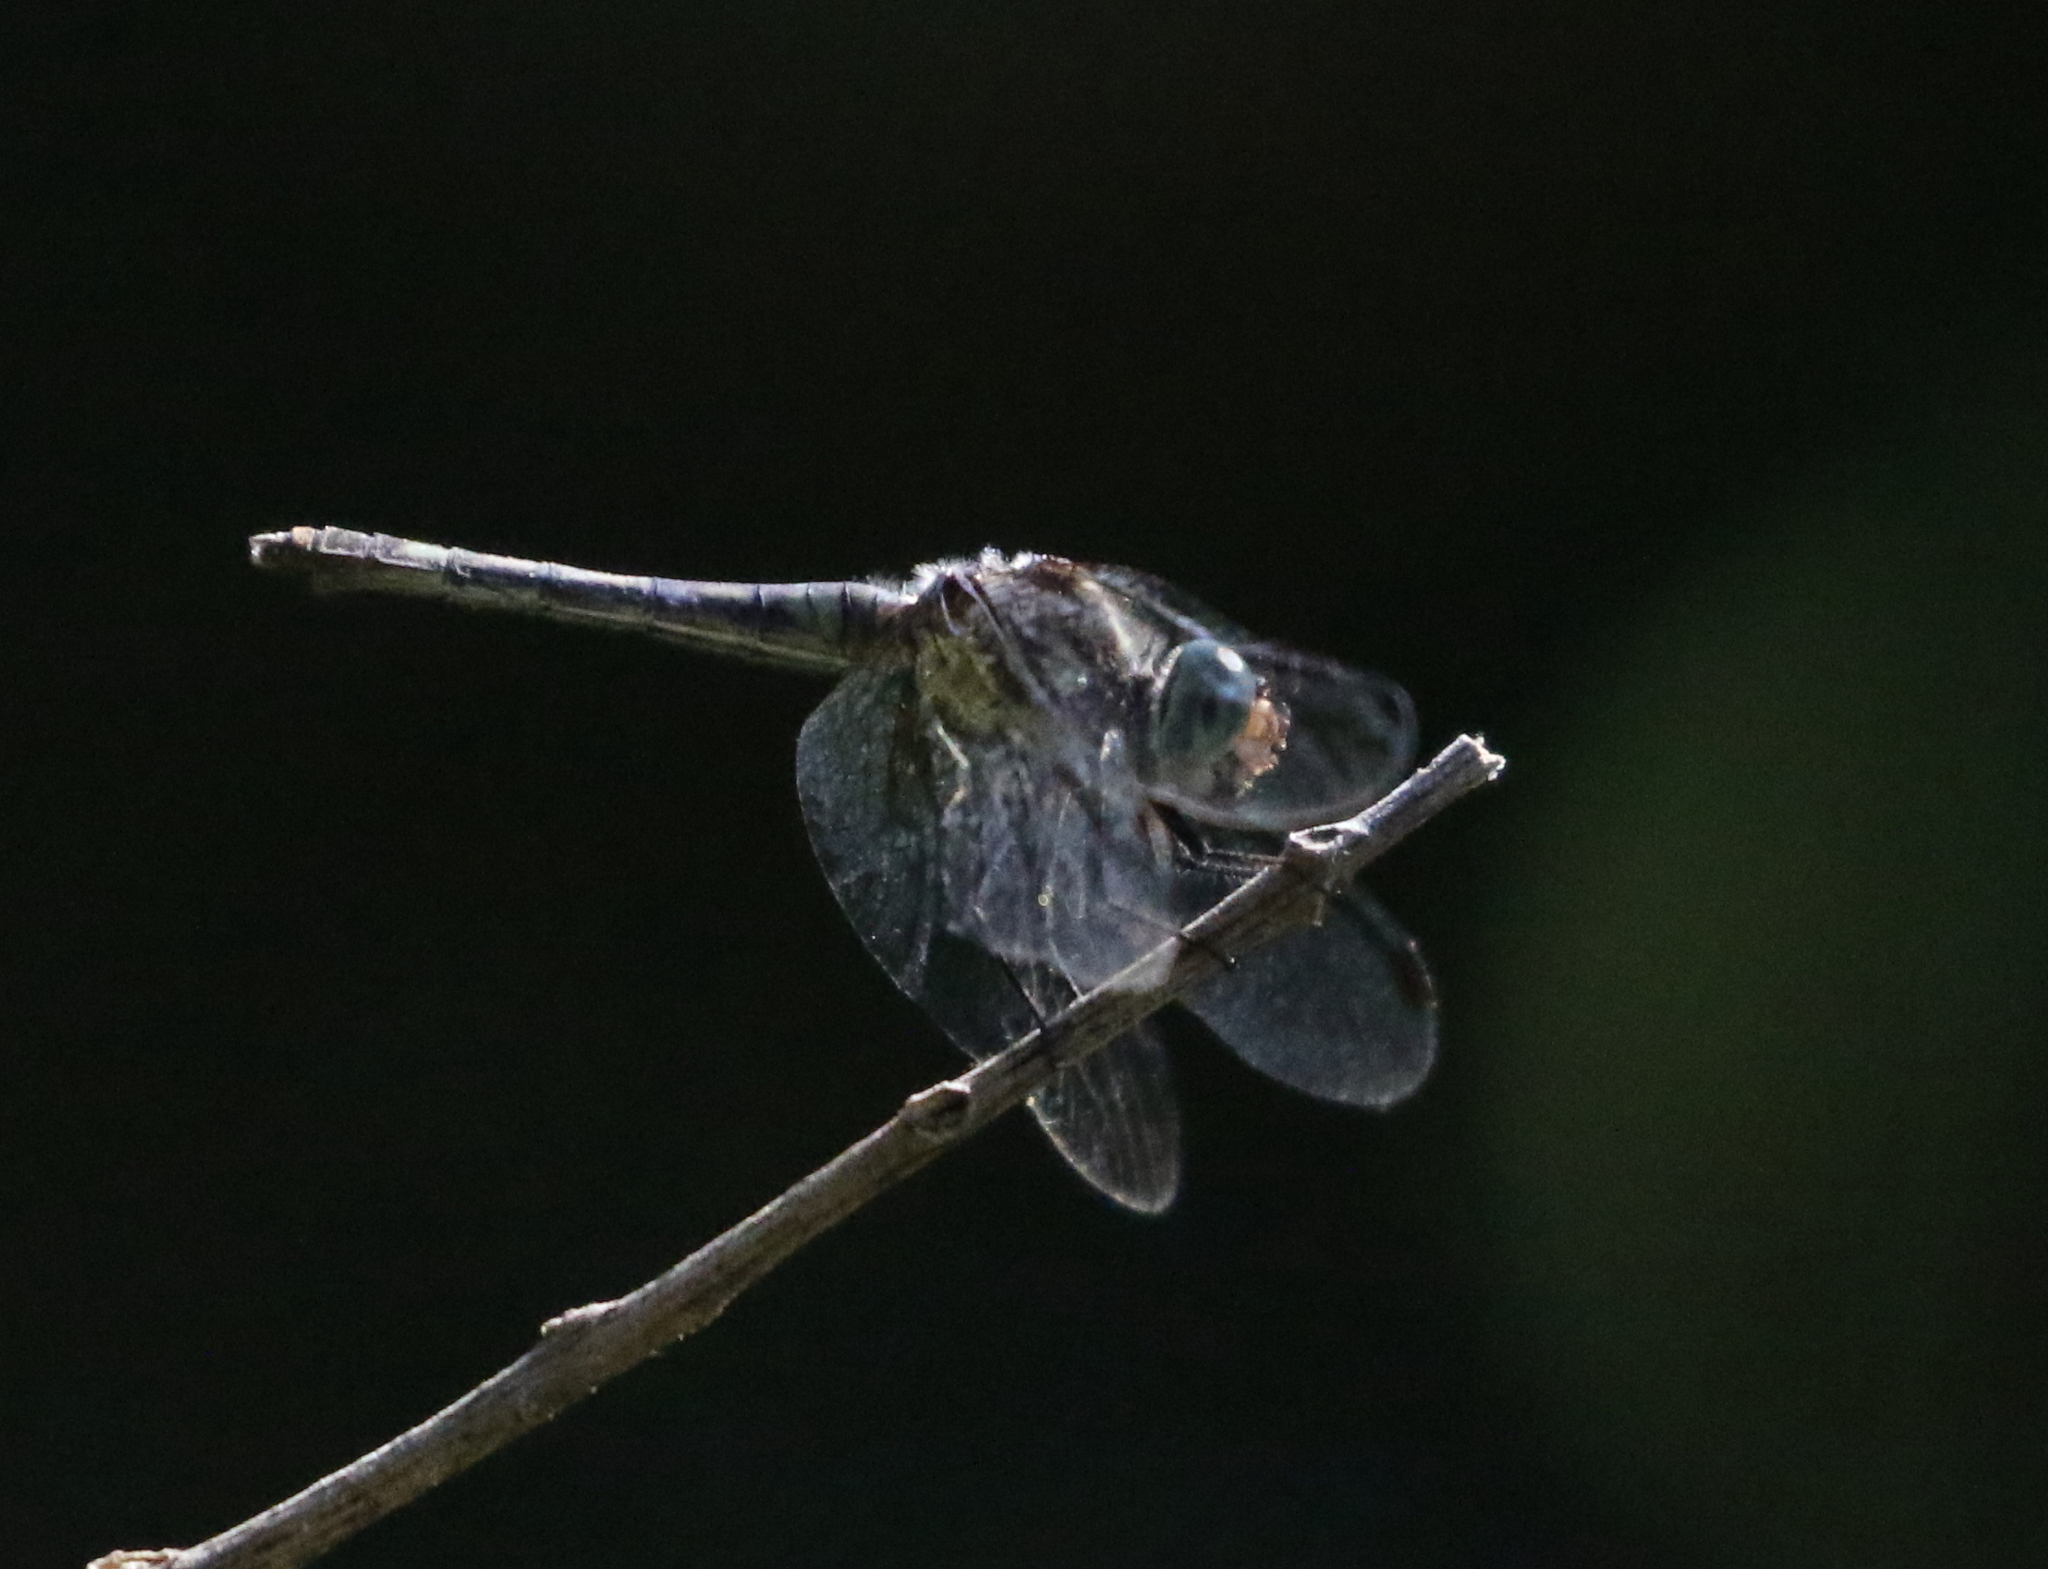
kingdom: Animalia
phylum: Arthropoda
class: Insecta
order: Odonata
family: Libellulidae
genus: Pachydiplax
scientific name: Pachydiplax longipennis
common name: Blue dasher
